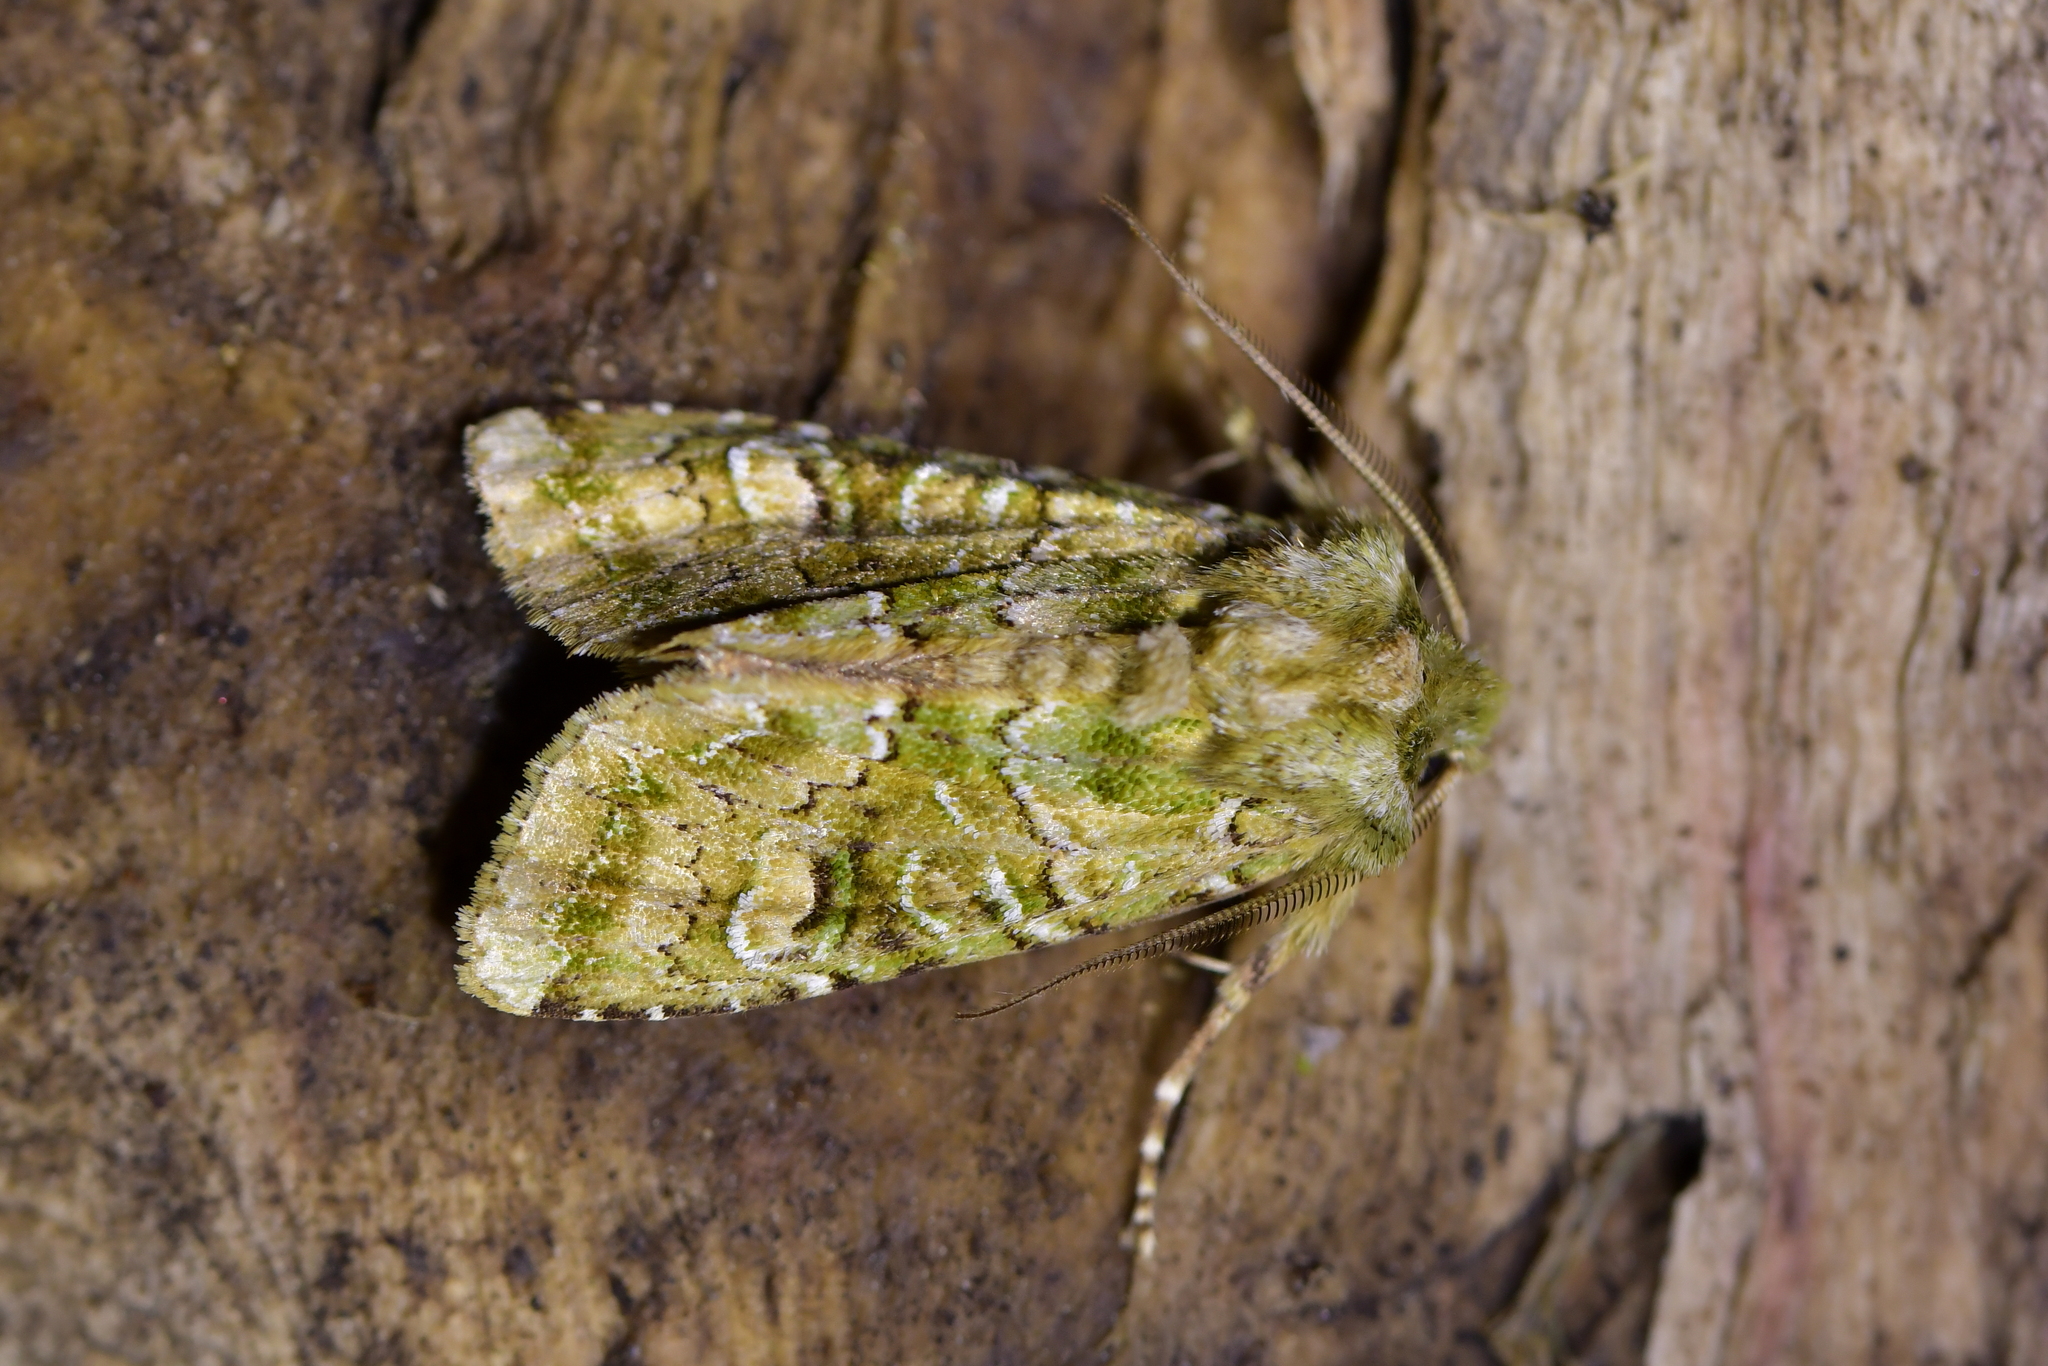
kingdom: Animalia
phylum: Arthropoda
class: Insecta
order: Lepidoptera
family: Noctuidae
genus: Ichneutica
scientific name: Ichneutica
